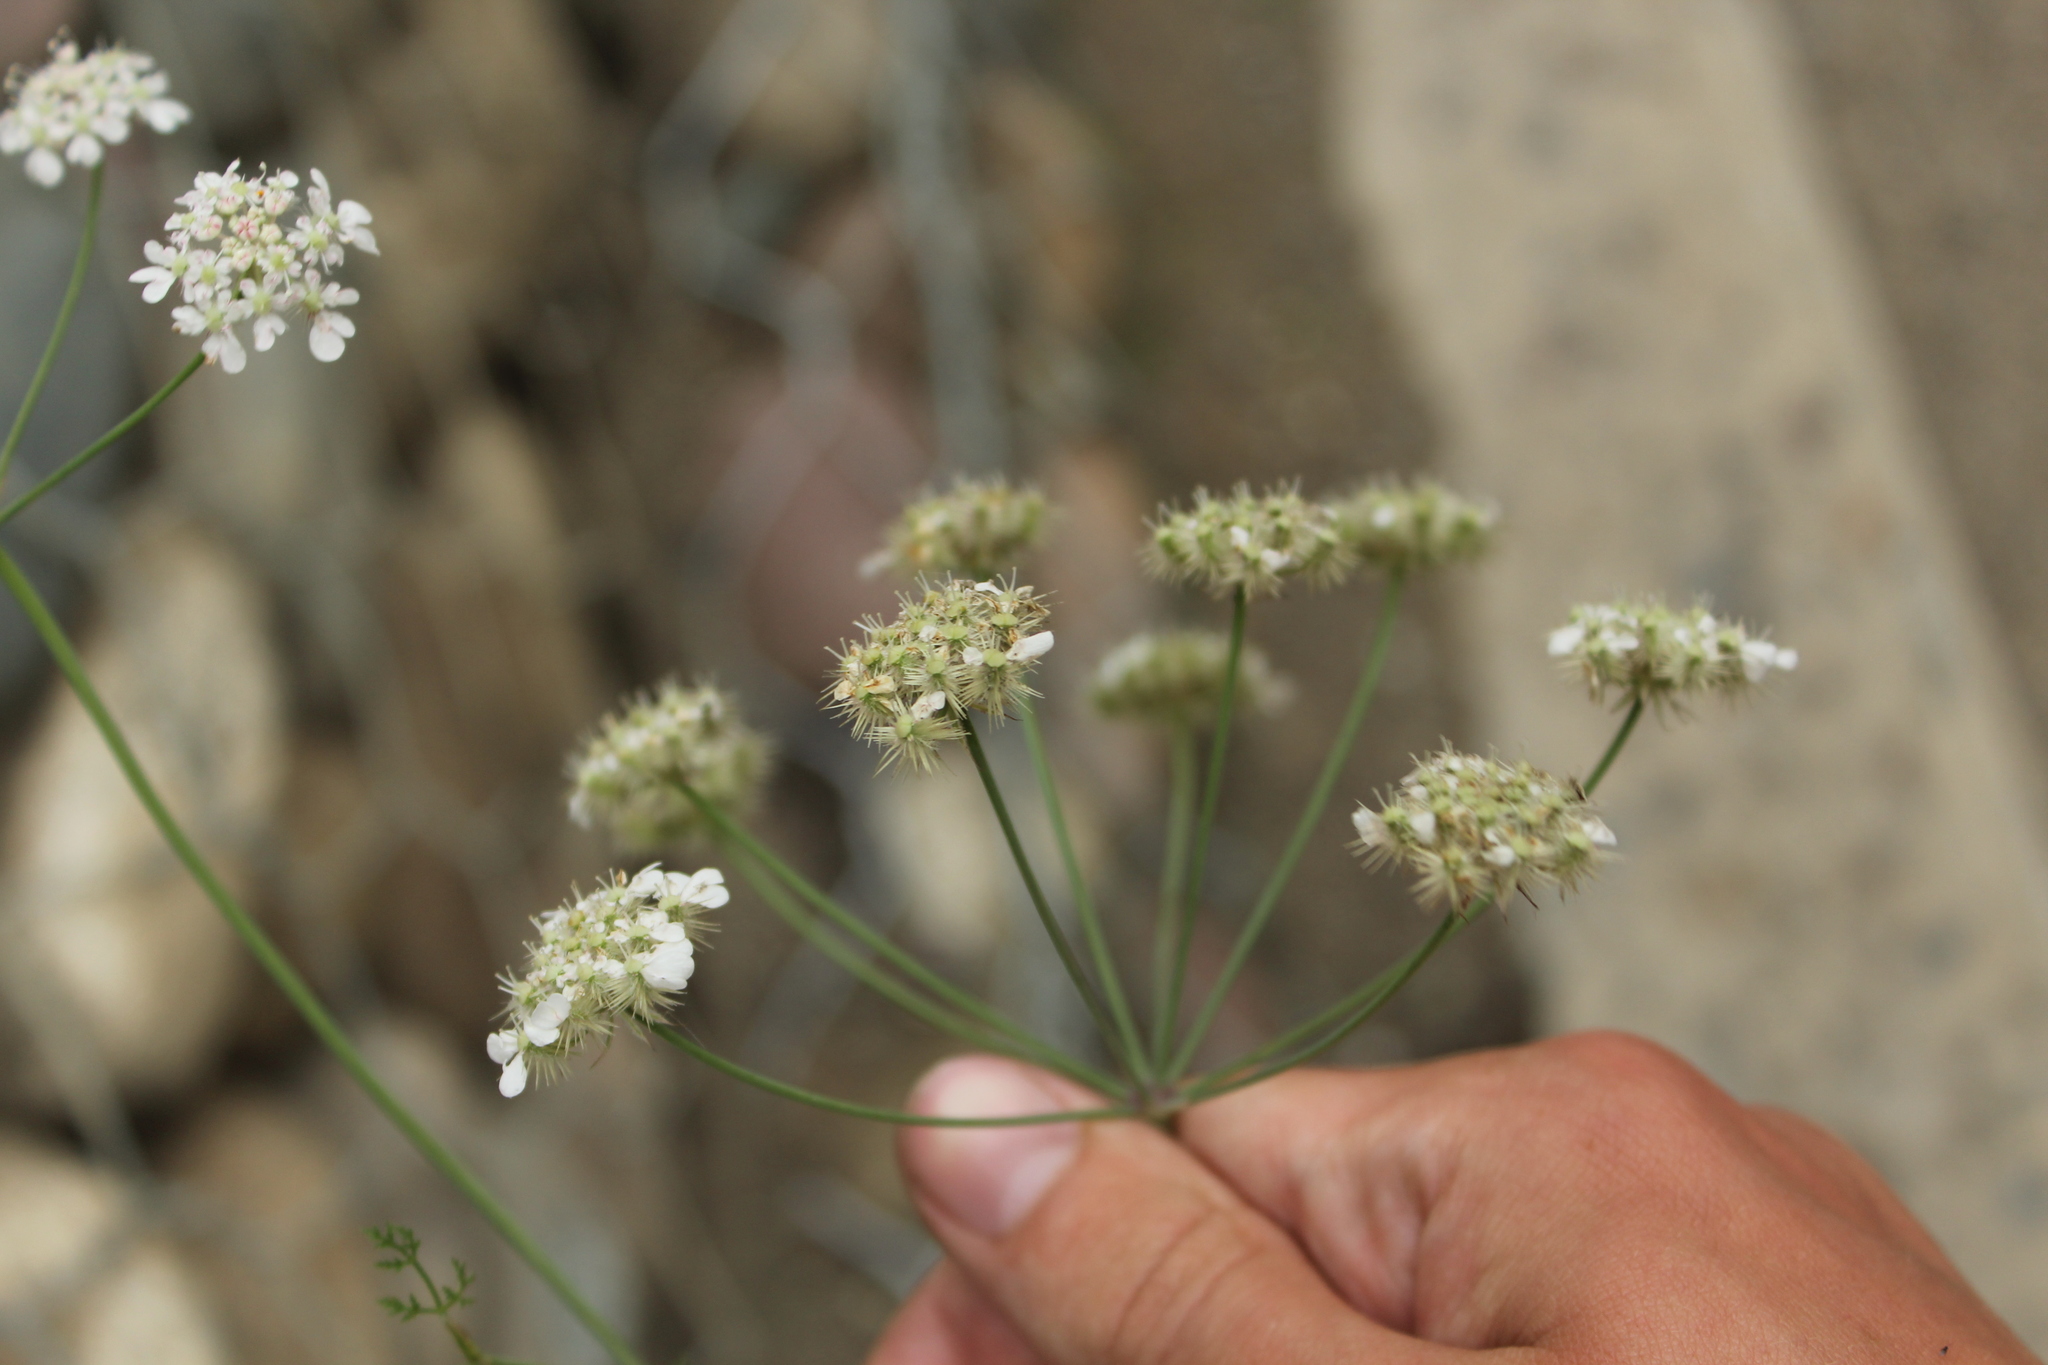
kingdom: Plantae
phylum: Tracheophyta
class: Magnoliopsida
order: Apiales
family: Apiaceae
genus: Astrodaucus
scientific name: Astrodaucus orientalis
